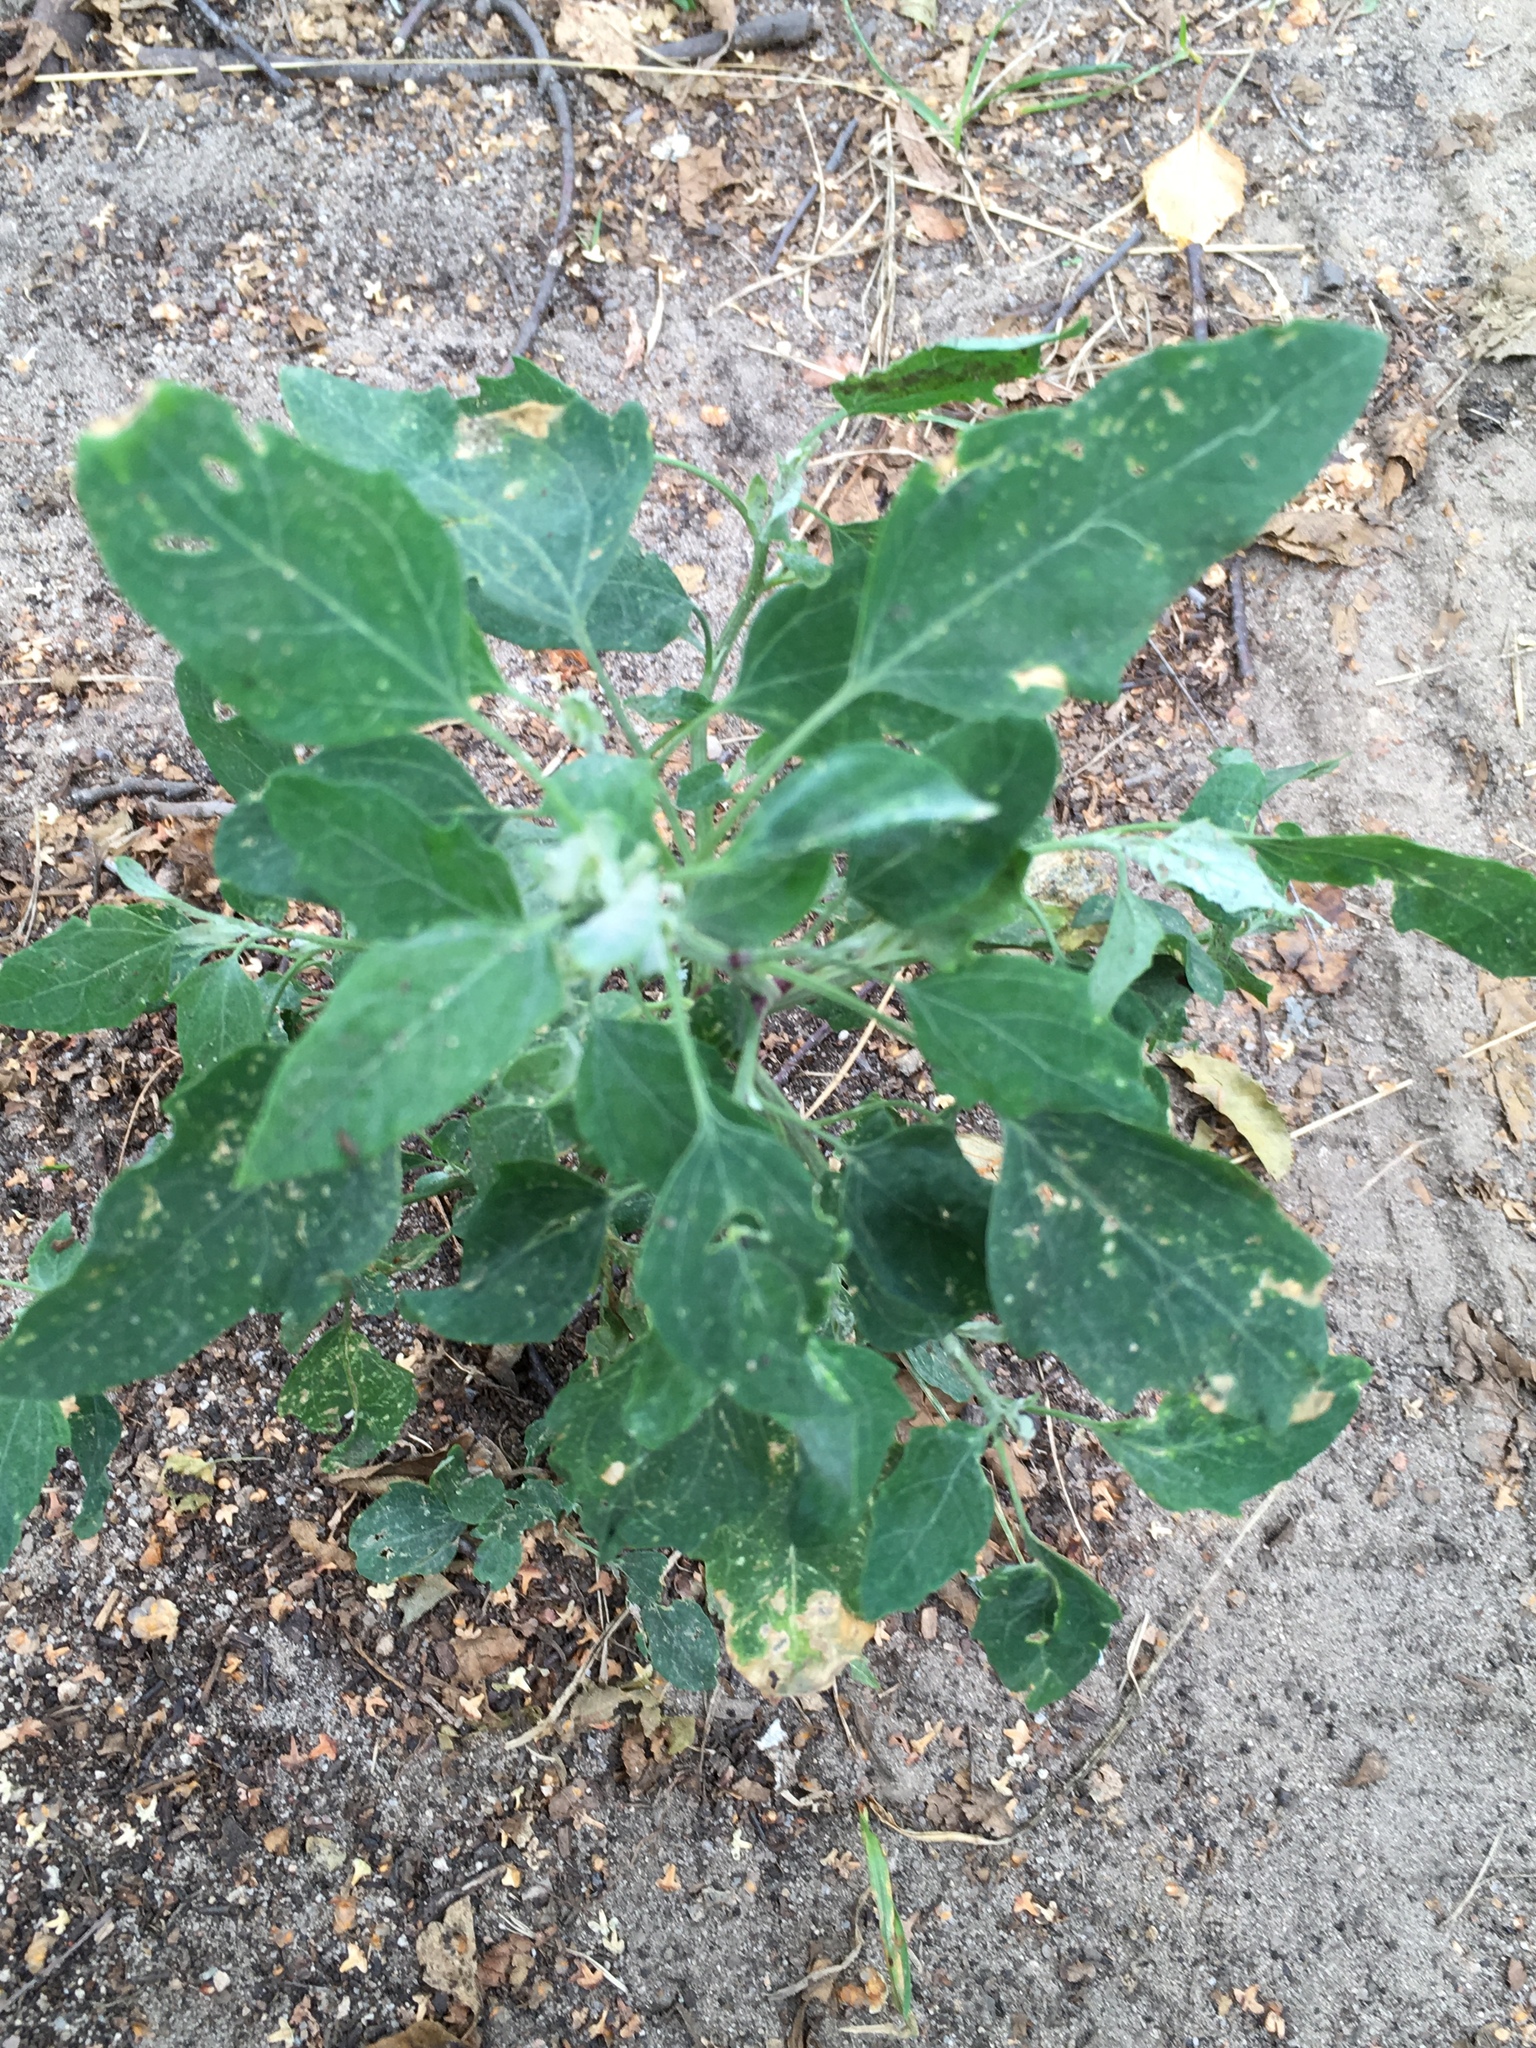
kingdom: Plantae
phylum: Tracheophyta
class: Magnoliopsida
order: Caryophyllales
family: Amaranthaceae
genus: Chenopodium
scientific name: Chenopodium album
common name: Fat-hen
